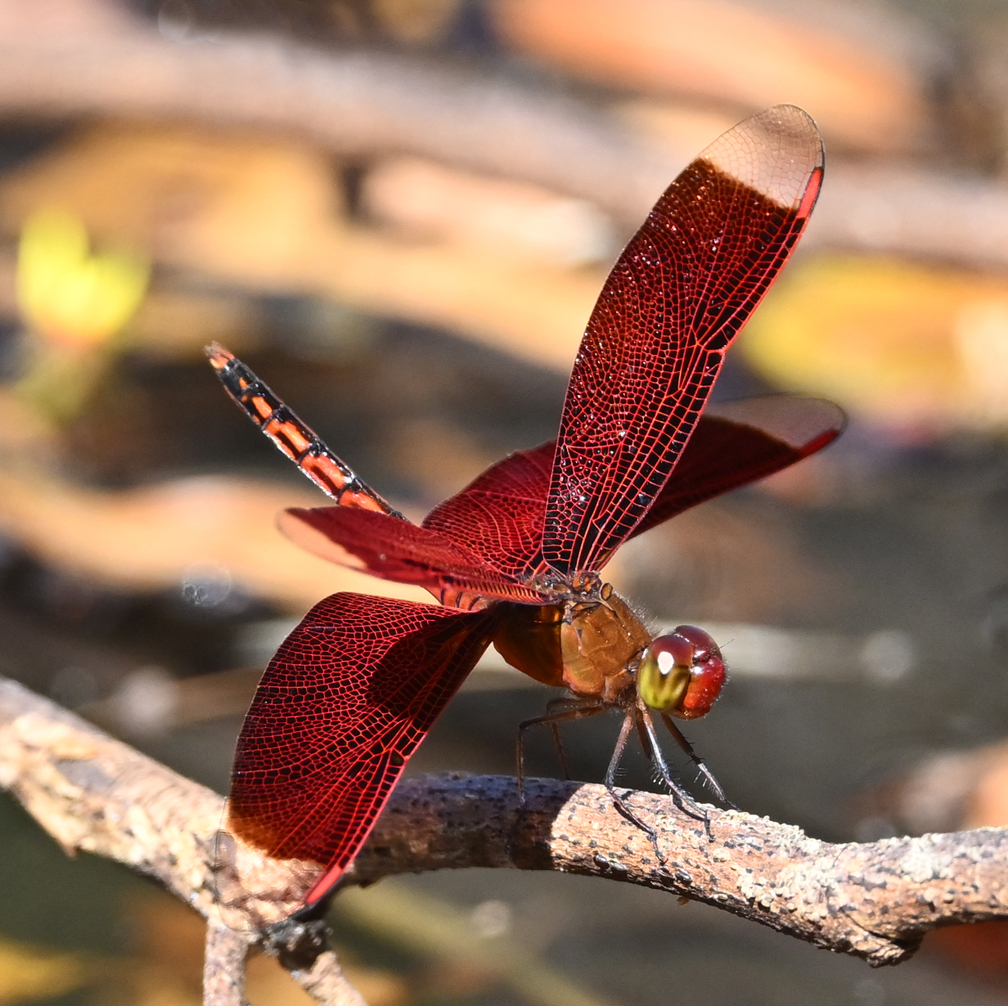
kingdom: Animalia
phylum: Arthropoda
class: Insecta
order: Odonata
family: Libellulidae
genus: Neurothemis
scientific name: Neurothemis taiwanensis
